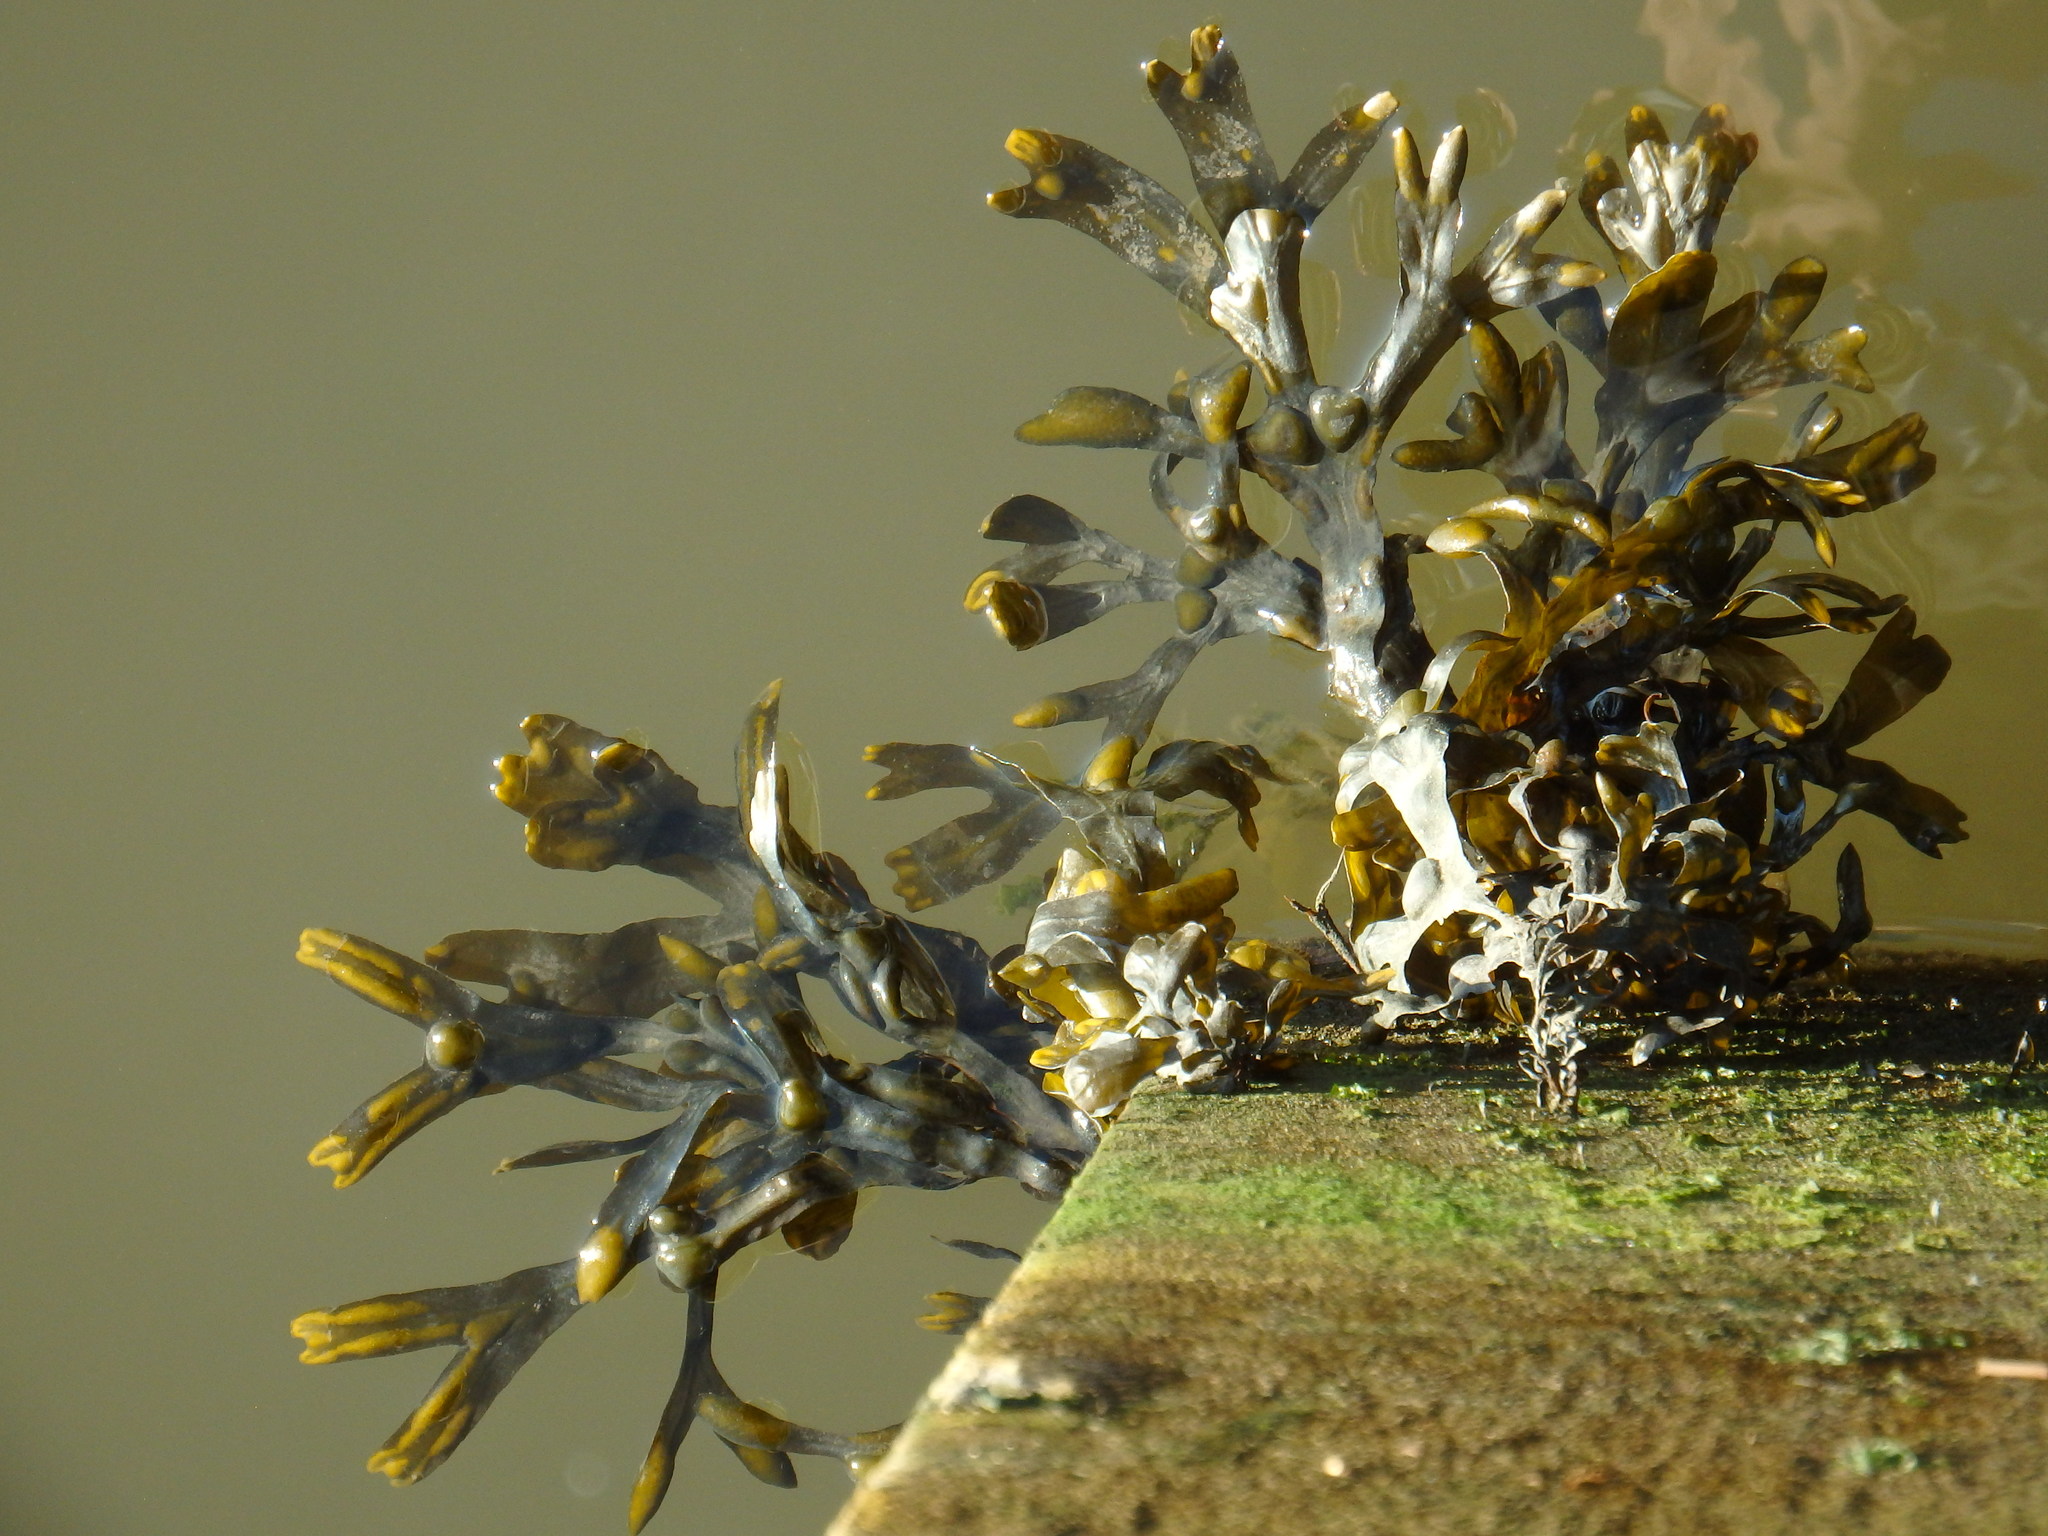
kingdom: Chromista
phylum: Ochrophyta
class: Phaeophyceae
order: Fucales
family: Fucaceae
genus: Fucus
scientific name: Fucus vesiculosus
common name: Bladder wrack
